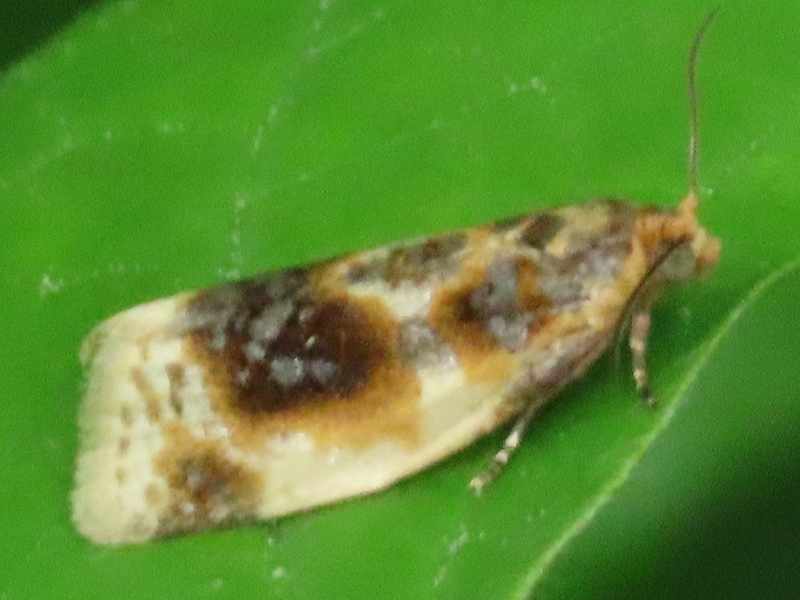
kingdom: Animalia
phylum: Arthropoda
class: Insecta
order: Lepidoptera
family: Tortricidae
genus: Clepsis
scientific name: Clepsis melaleucanus
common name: American apple tortrix
